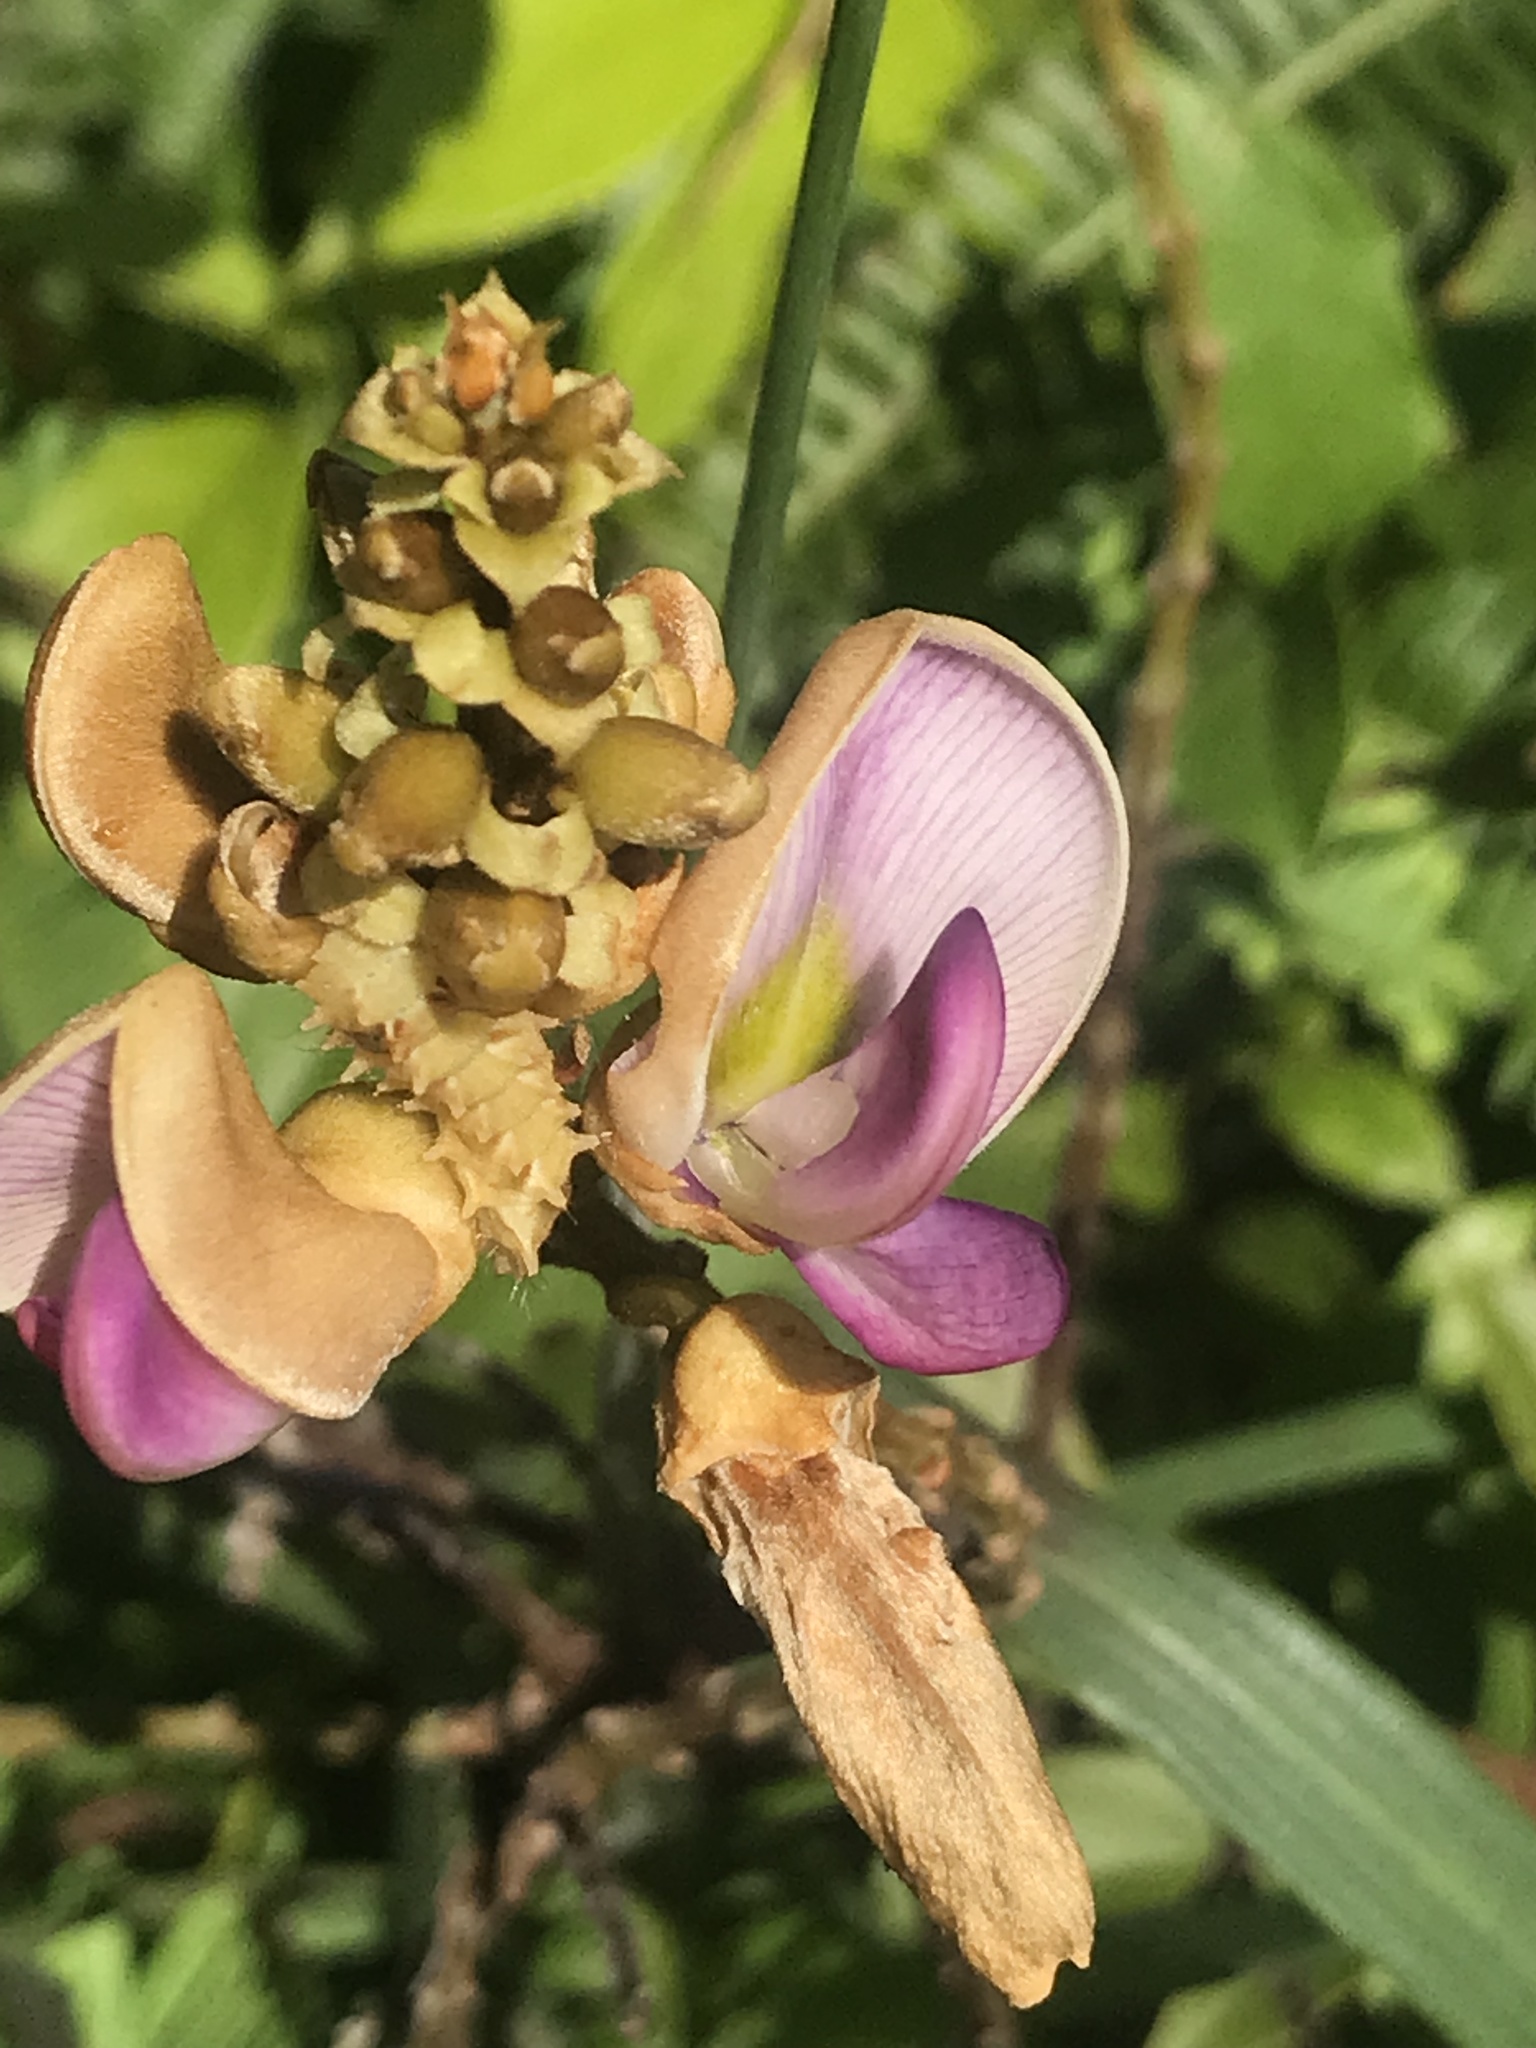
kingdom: Plantae
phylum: Tracheophyta
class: Magnoliopsida
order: Fabales
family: Fabaceae
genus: Callerya
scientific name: Callerya nitida
